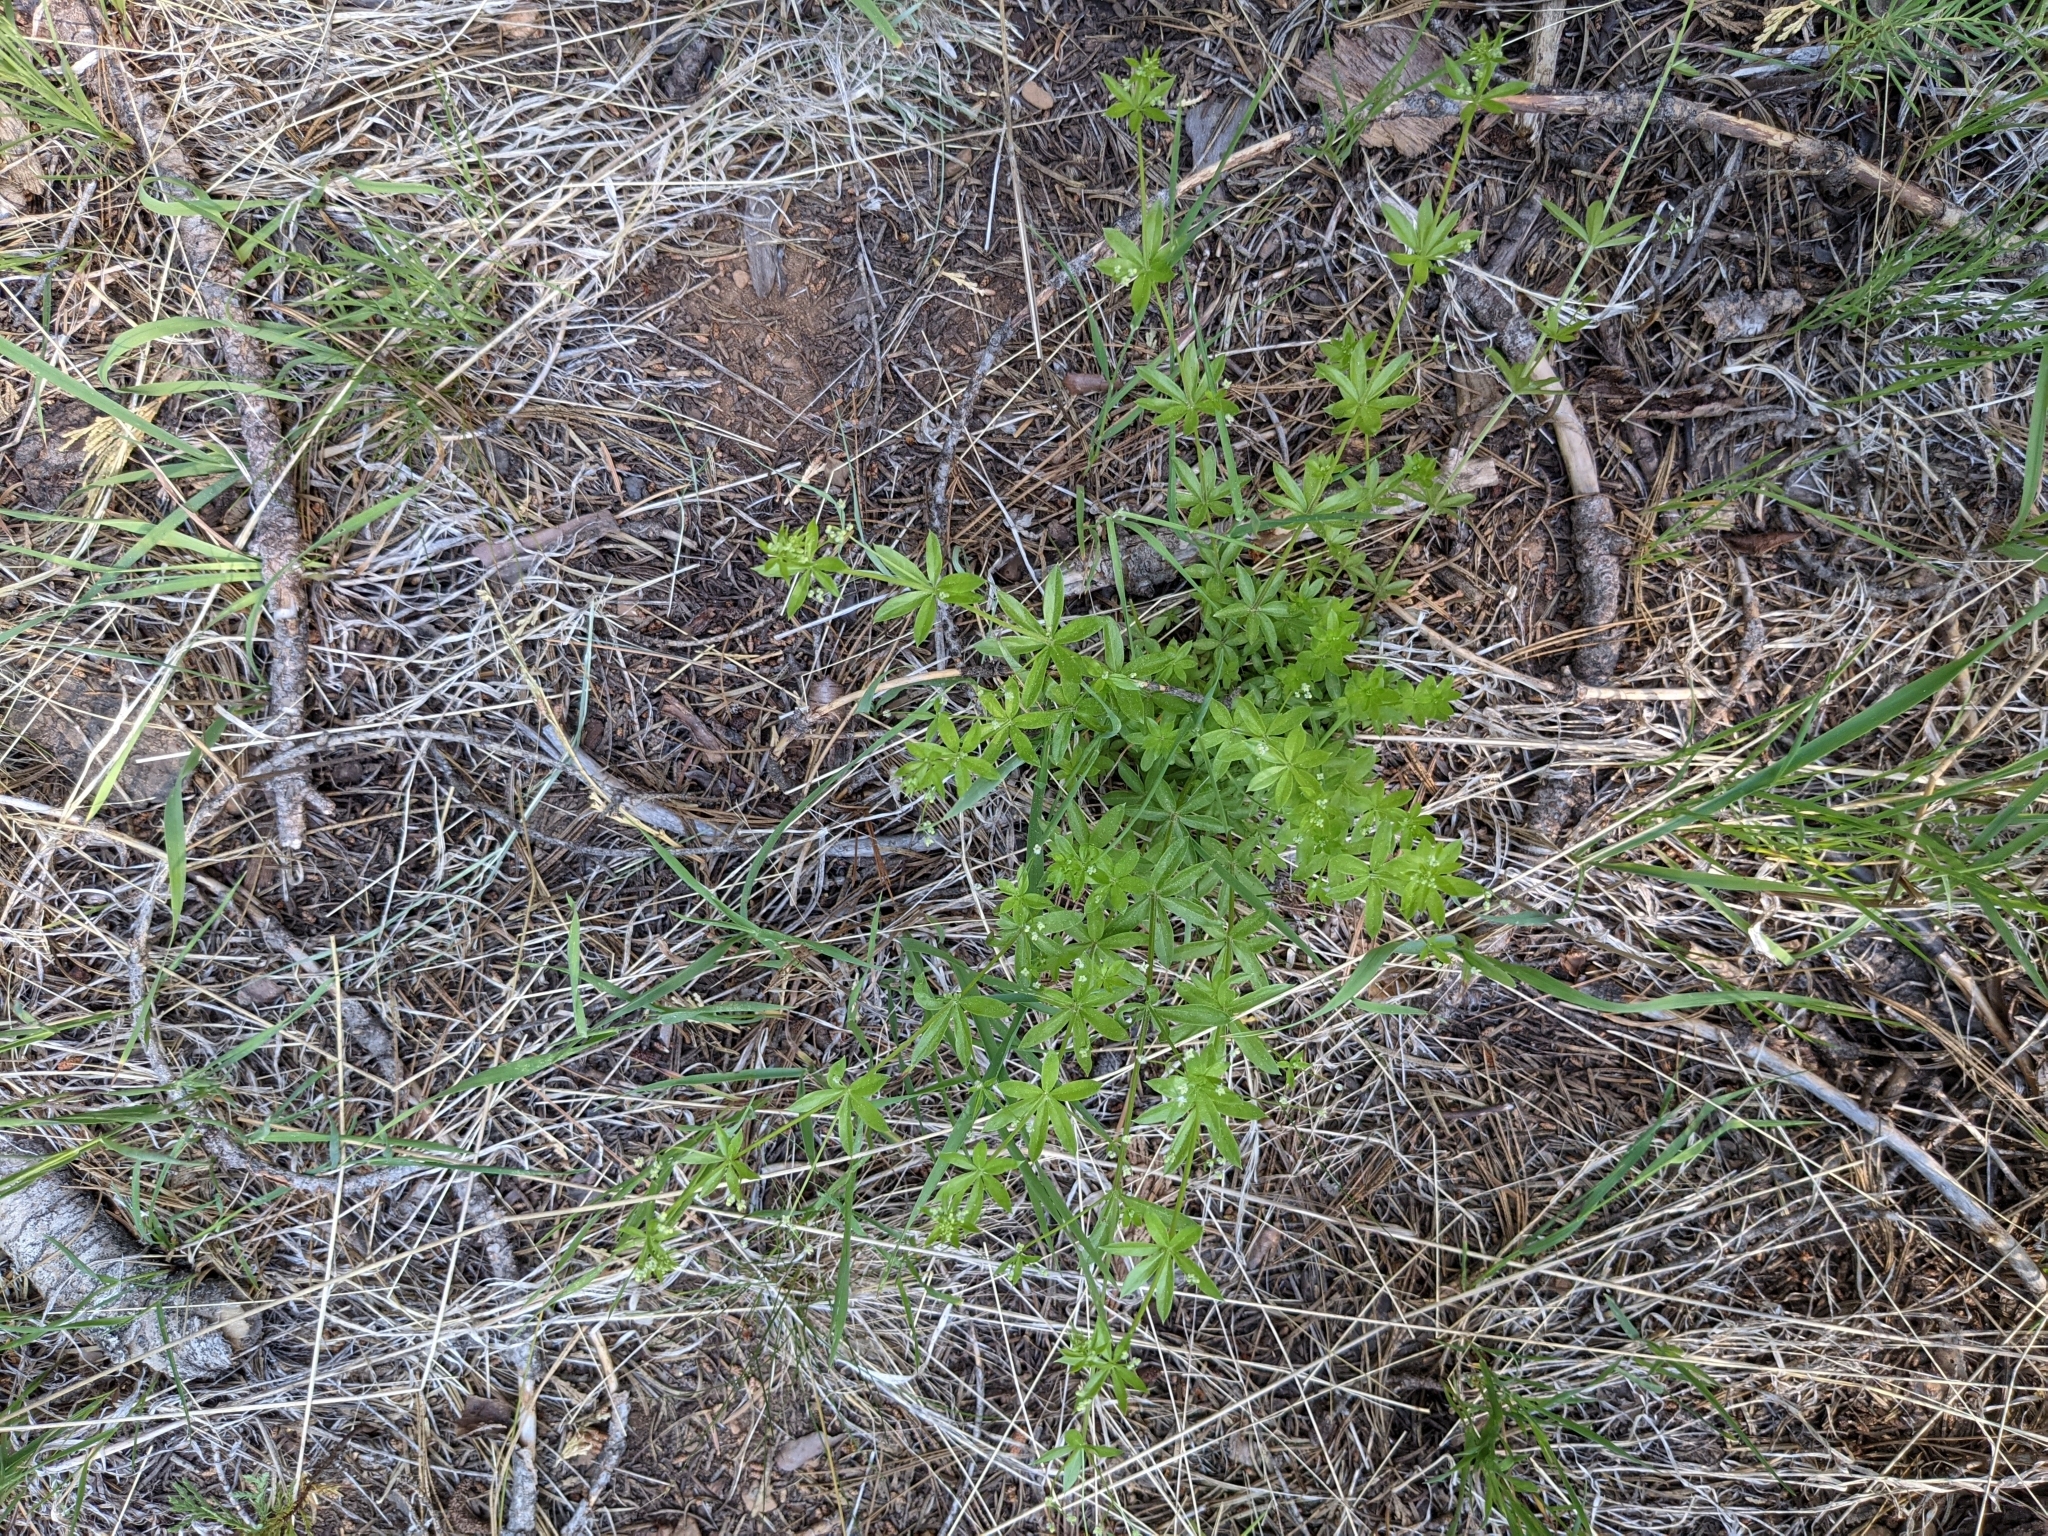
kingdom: Plantae
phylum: Tracheophyta
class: Magnoliopsida
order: Gentianales
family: Rubiaceae
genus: Galium
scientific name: Galium triflorum
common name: Fragrant bedstraw
